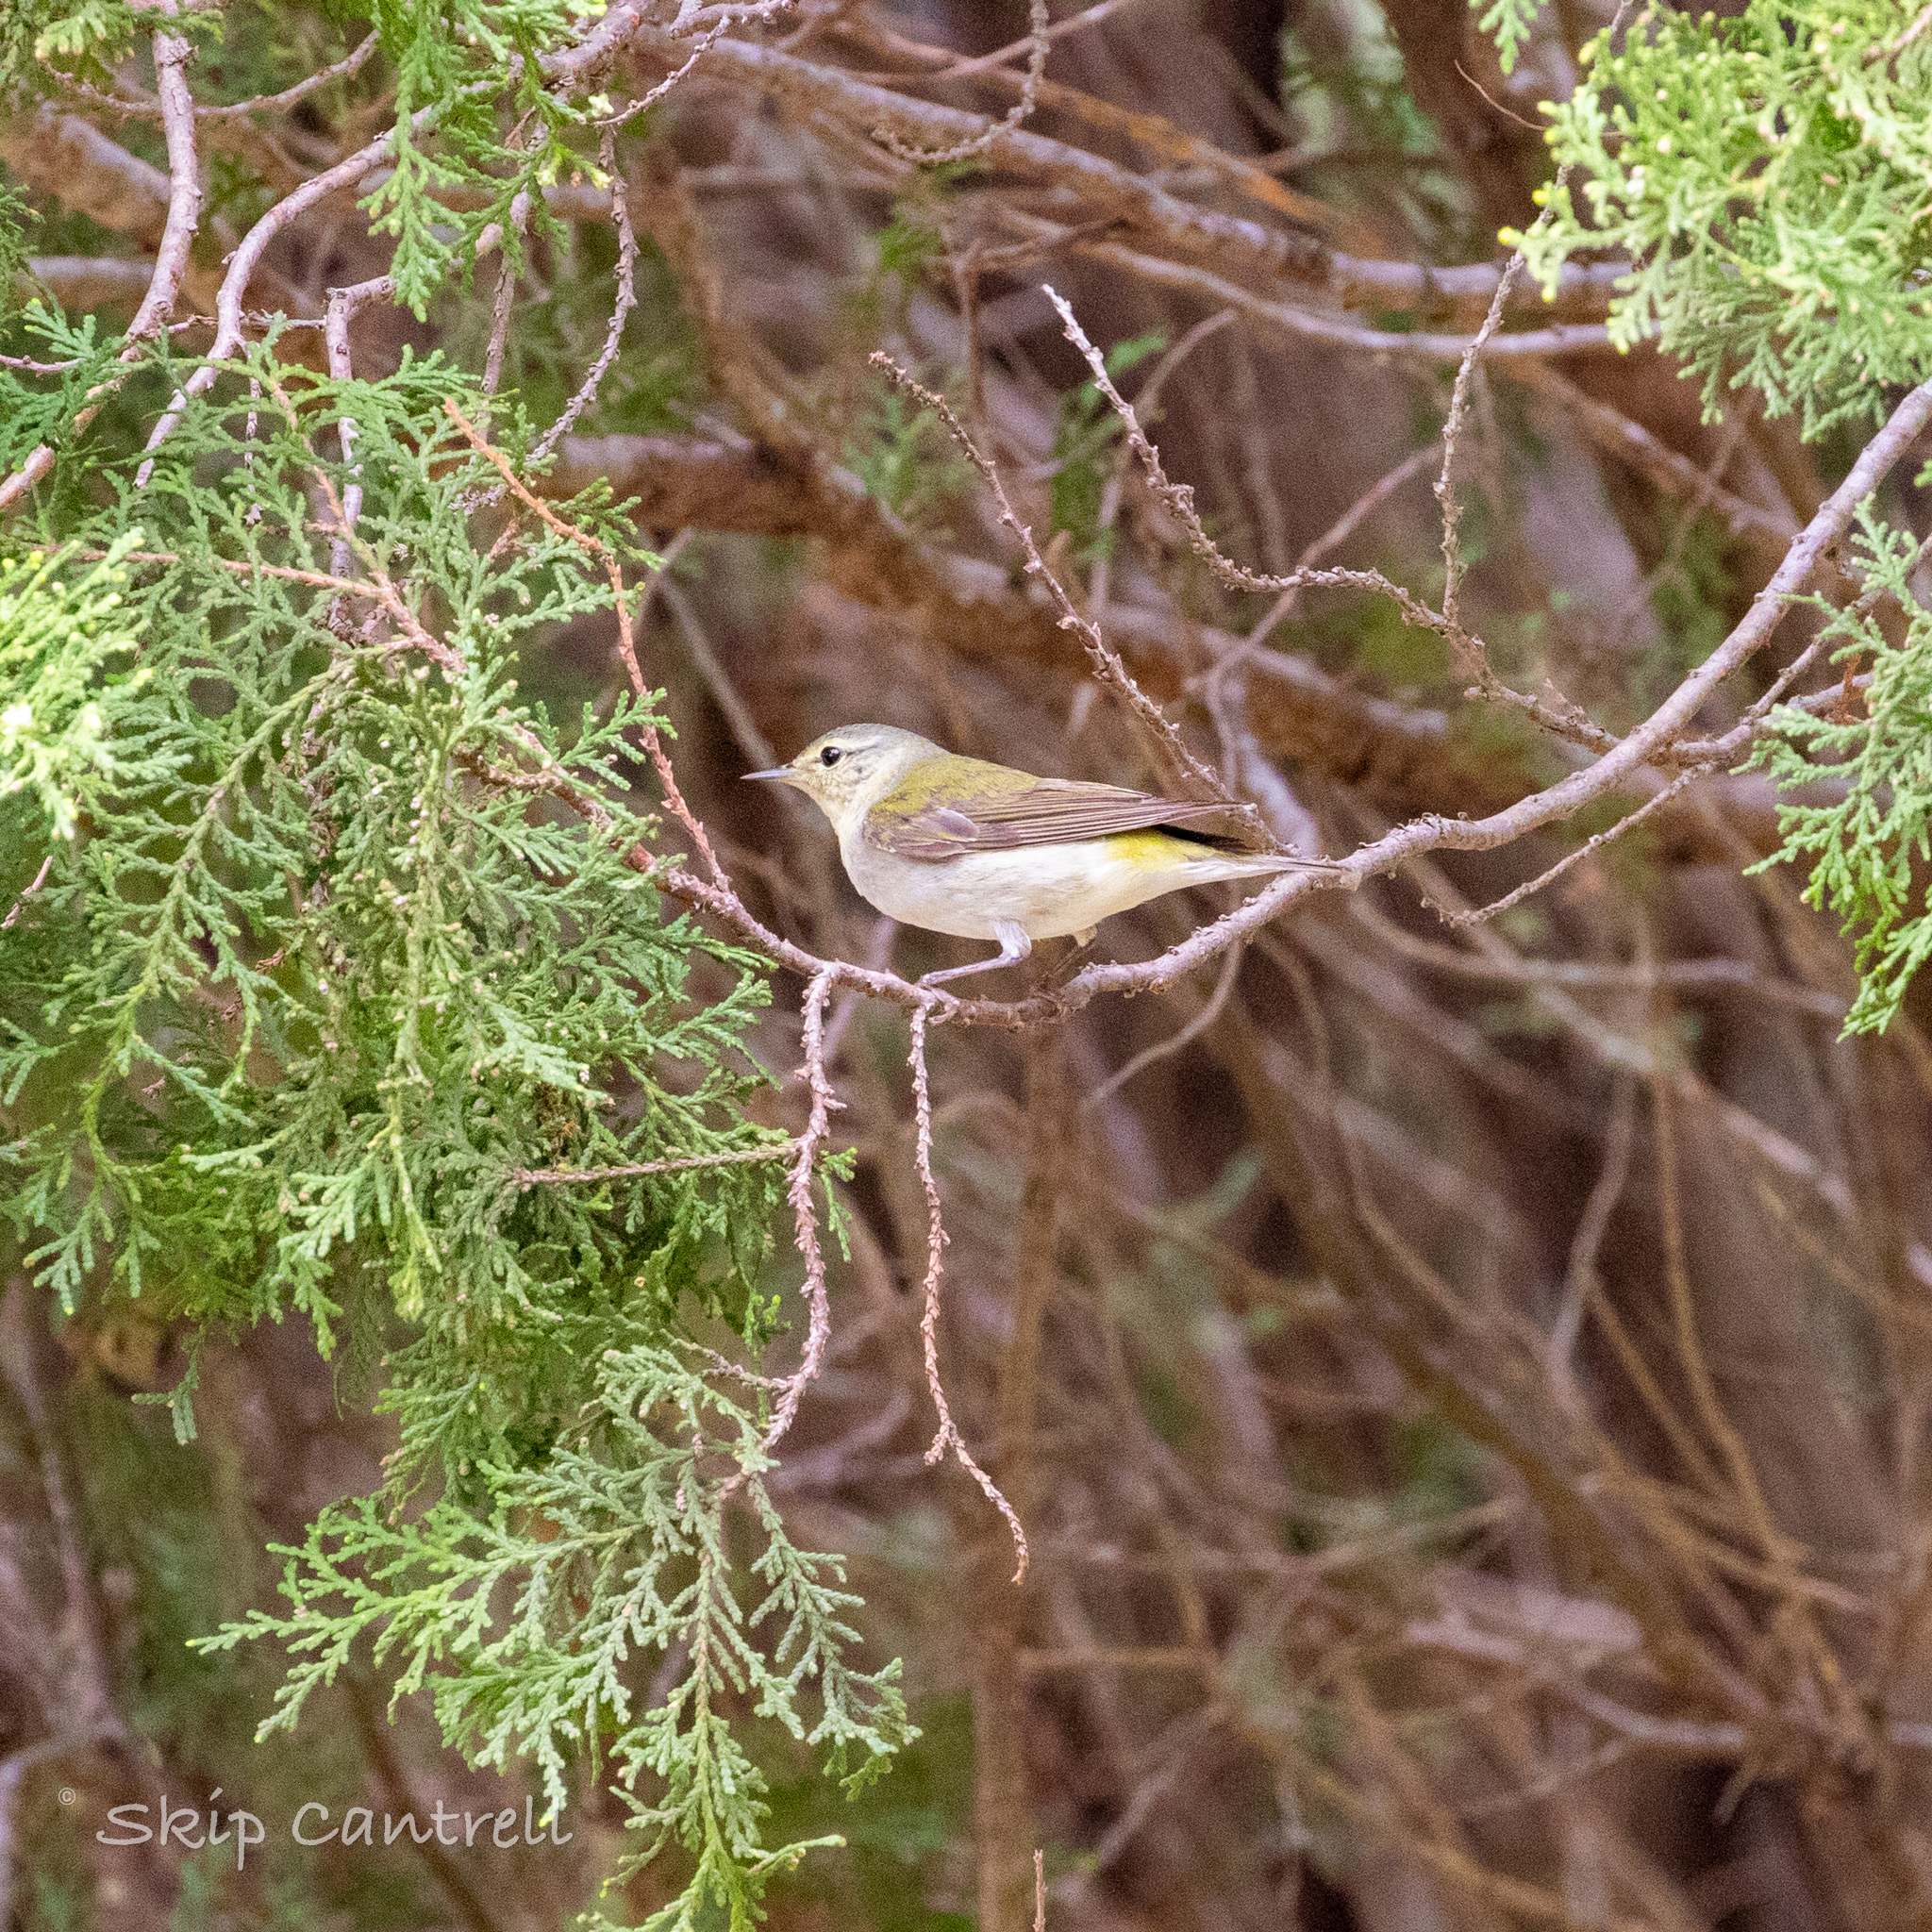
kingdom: Animalia
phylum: Chordata
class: Aves
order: Passeriformes
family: Parulidae
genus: Leiothlypis
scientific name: Leiothlypis peregrina
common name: Tennessee warbler
